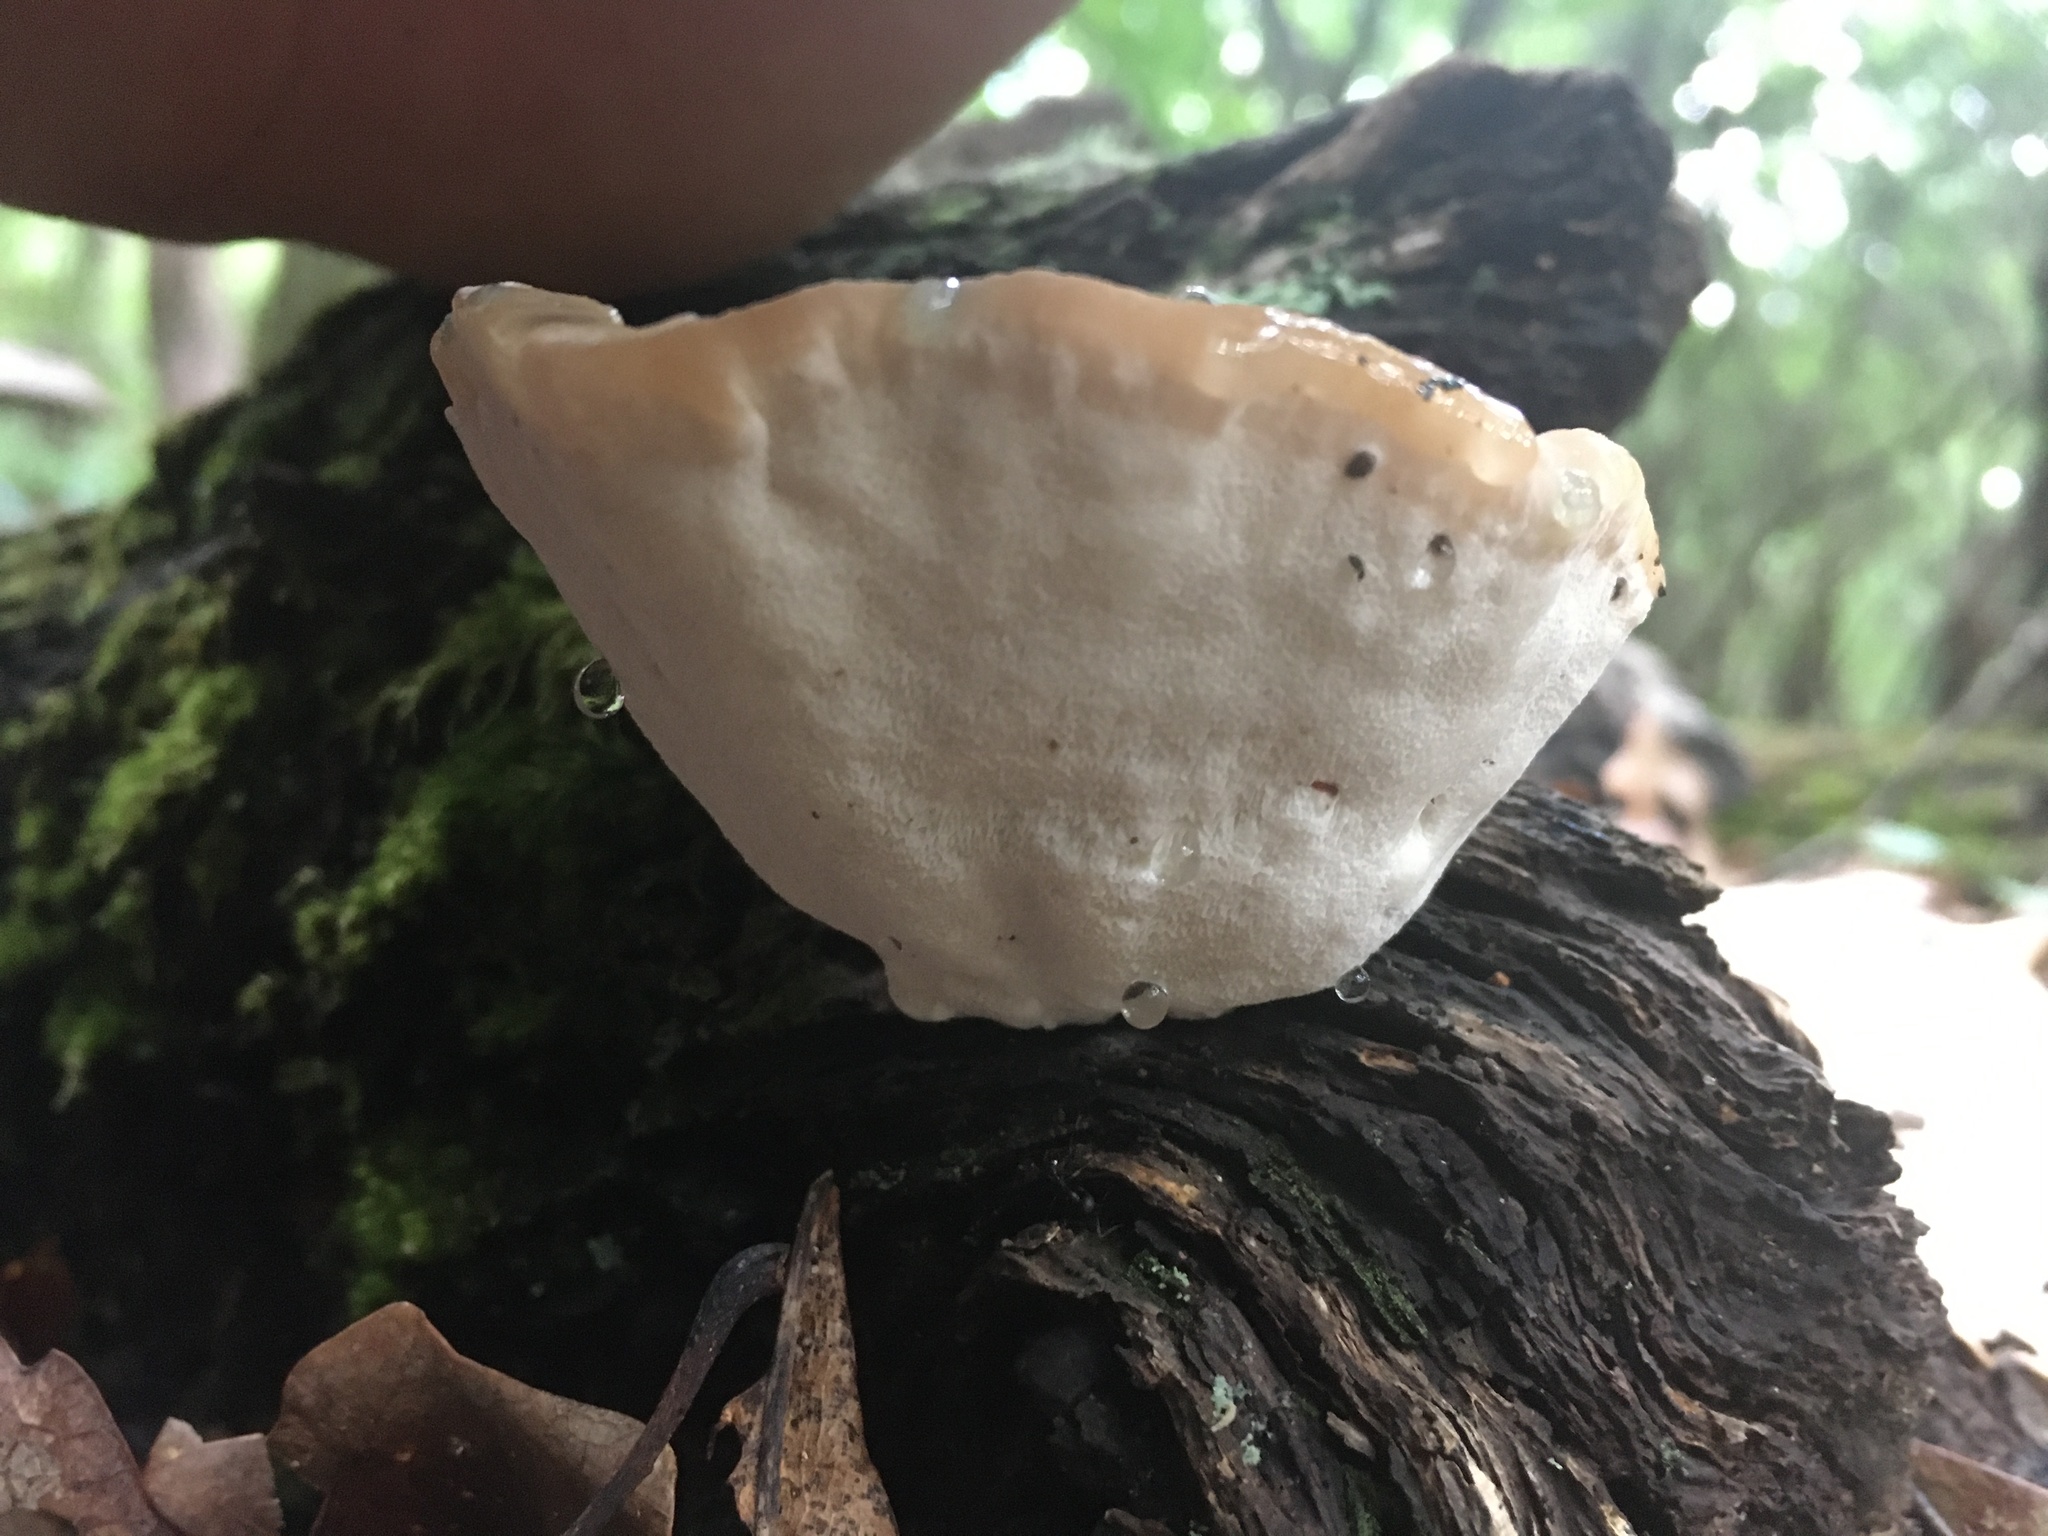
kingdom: Fungi
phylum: Basidiomycota
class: Agaricomycetes
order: Polyporales
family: Fomitopsidaceae
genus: Niveoporofomes
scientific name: Niveoporofomes spraguei
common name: Green cheese polypore
